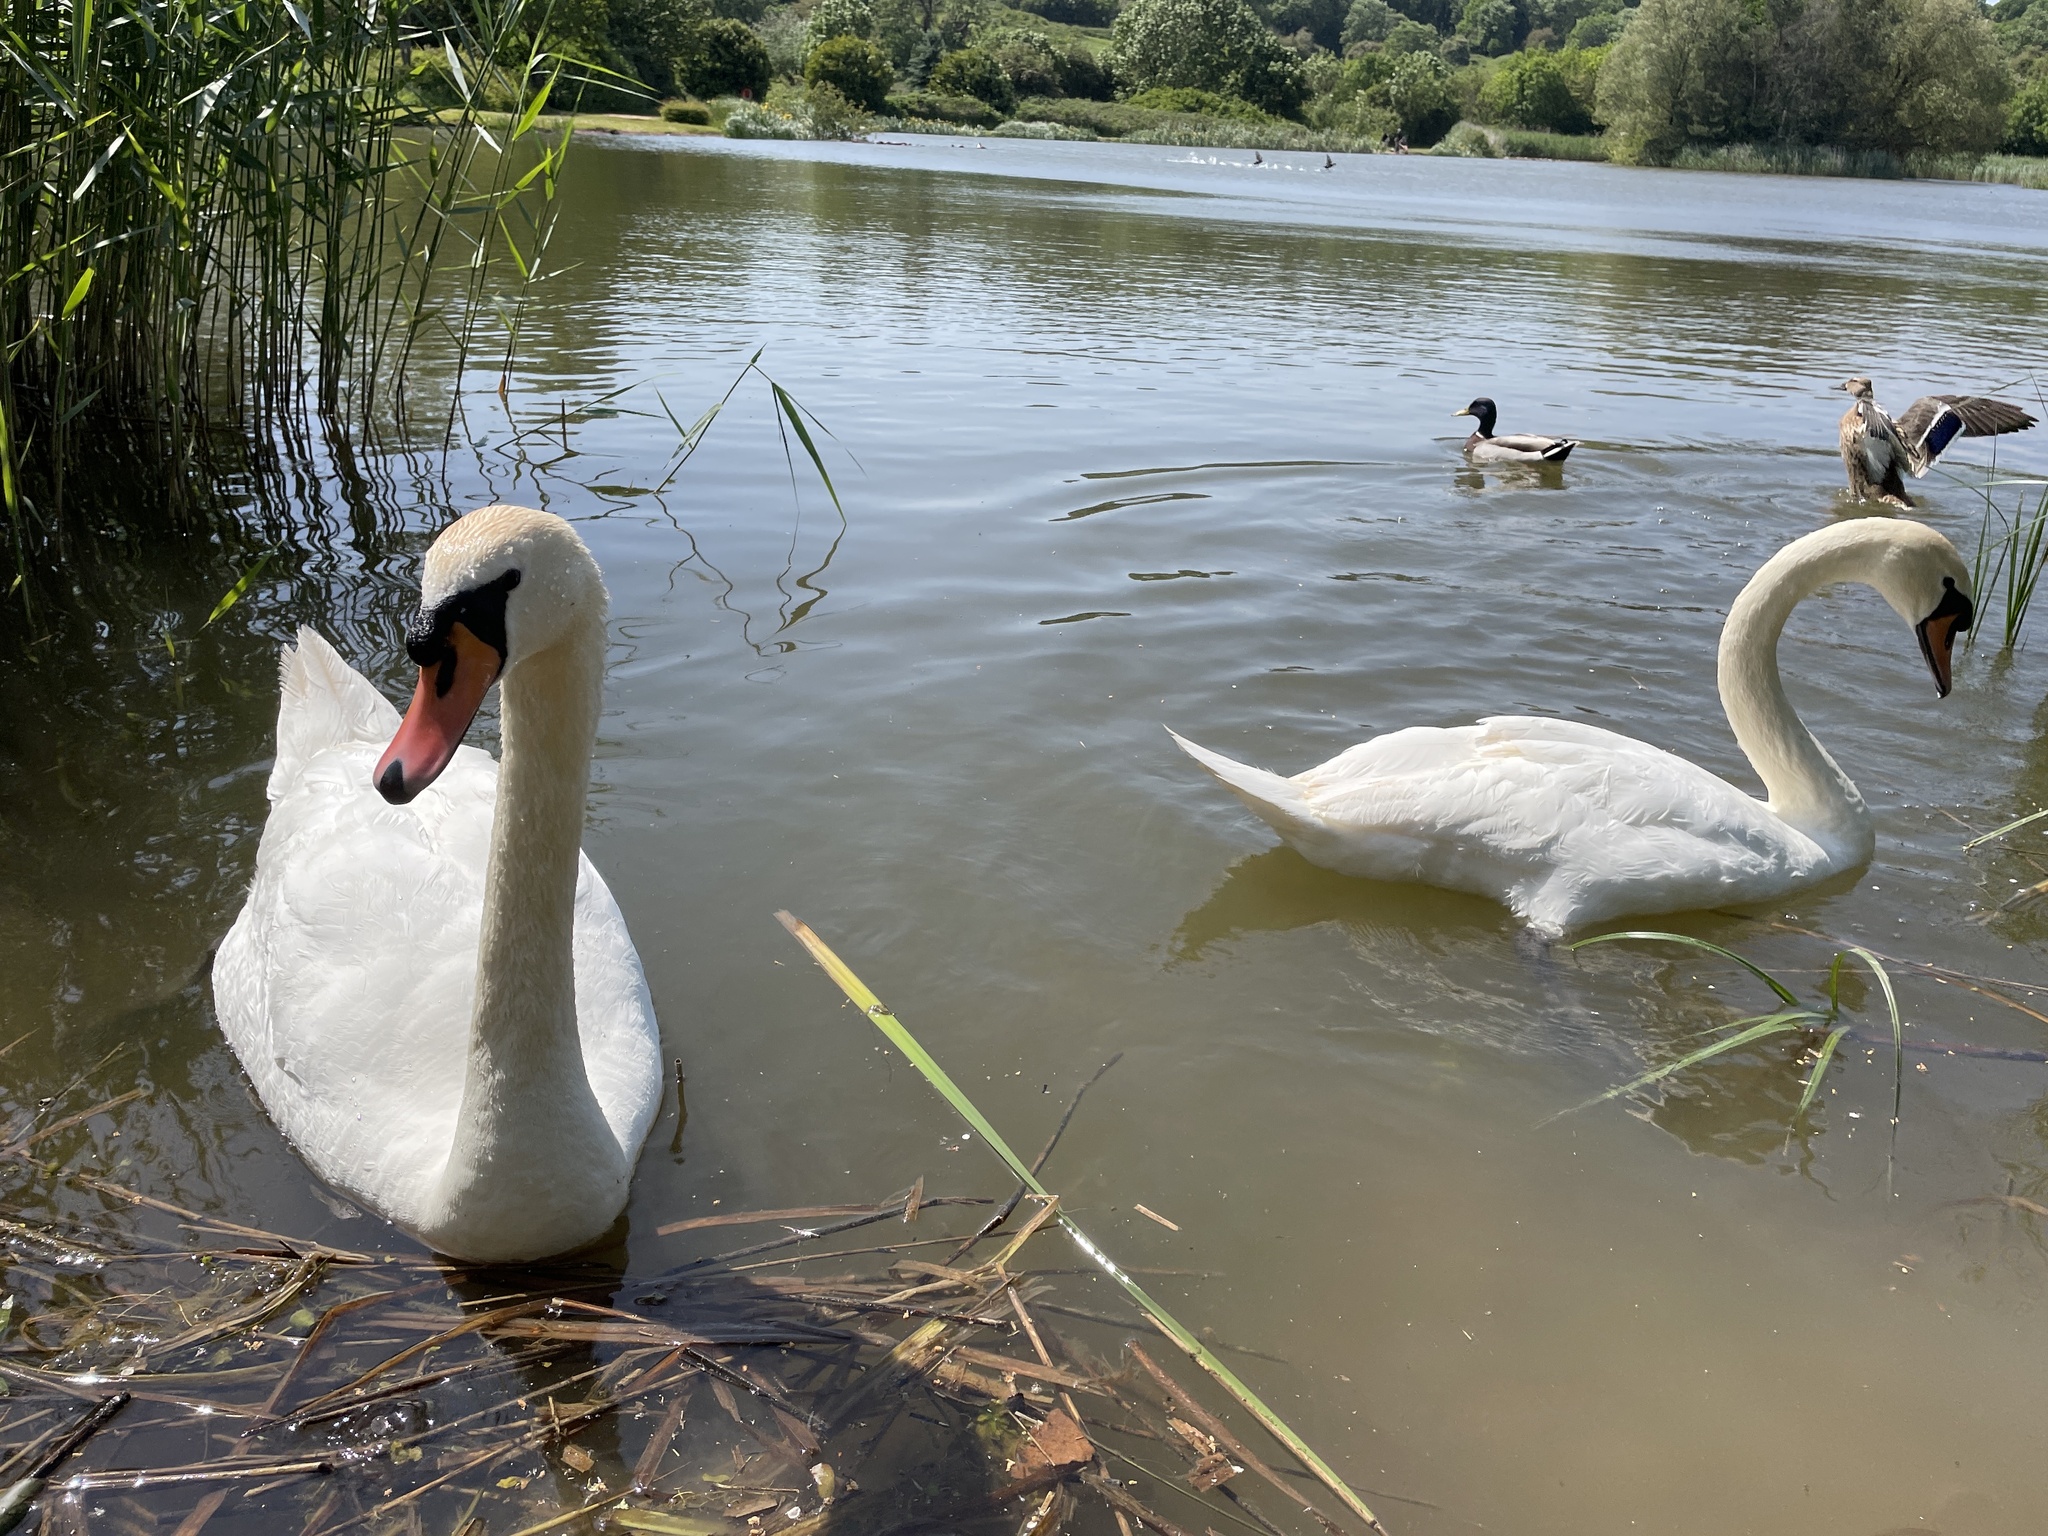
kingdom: Animalia
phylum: Chordata
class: Aves
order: Anseriformes
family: Anatidae
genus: Cygnus
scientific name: Cygnus olor
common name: Mute swan
